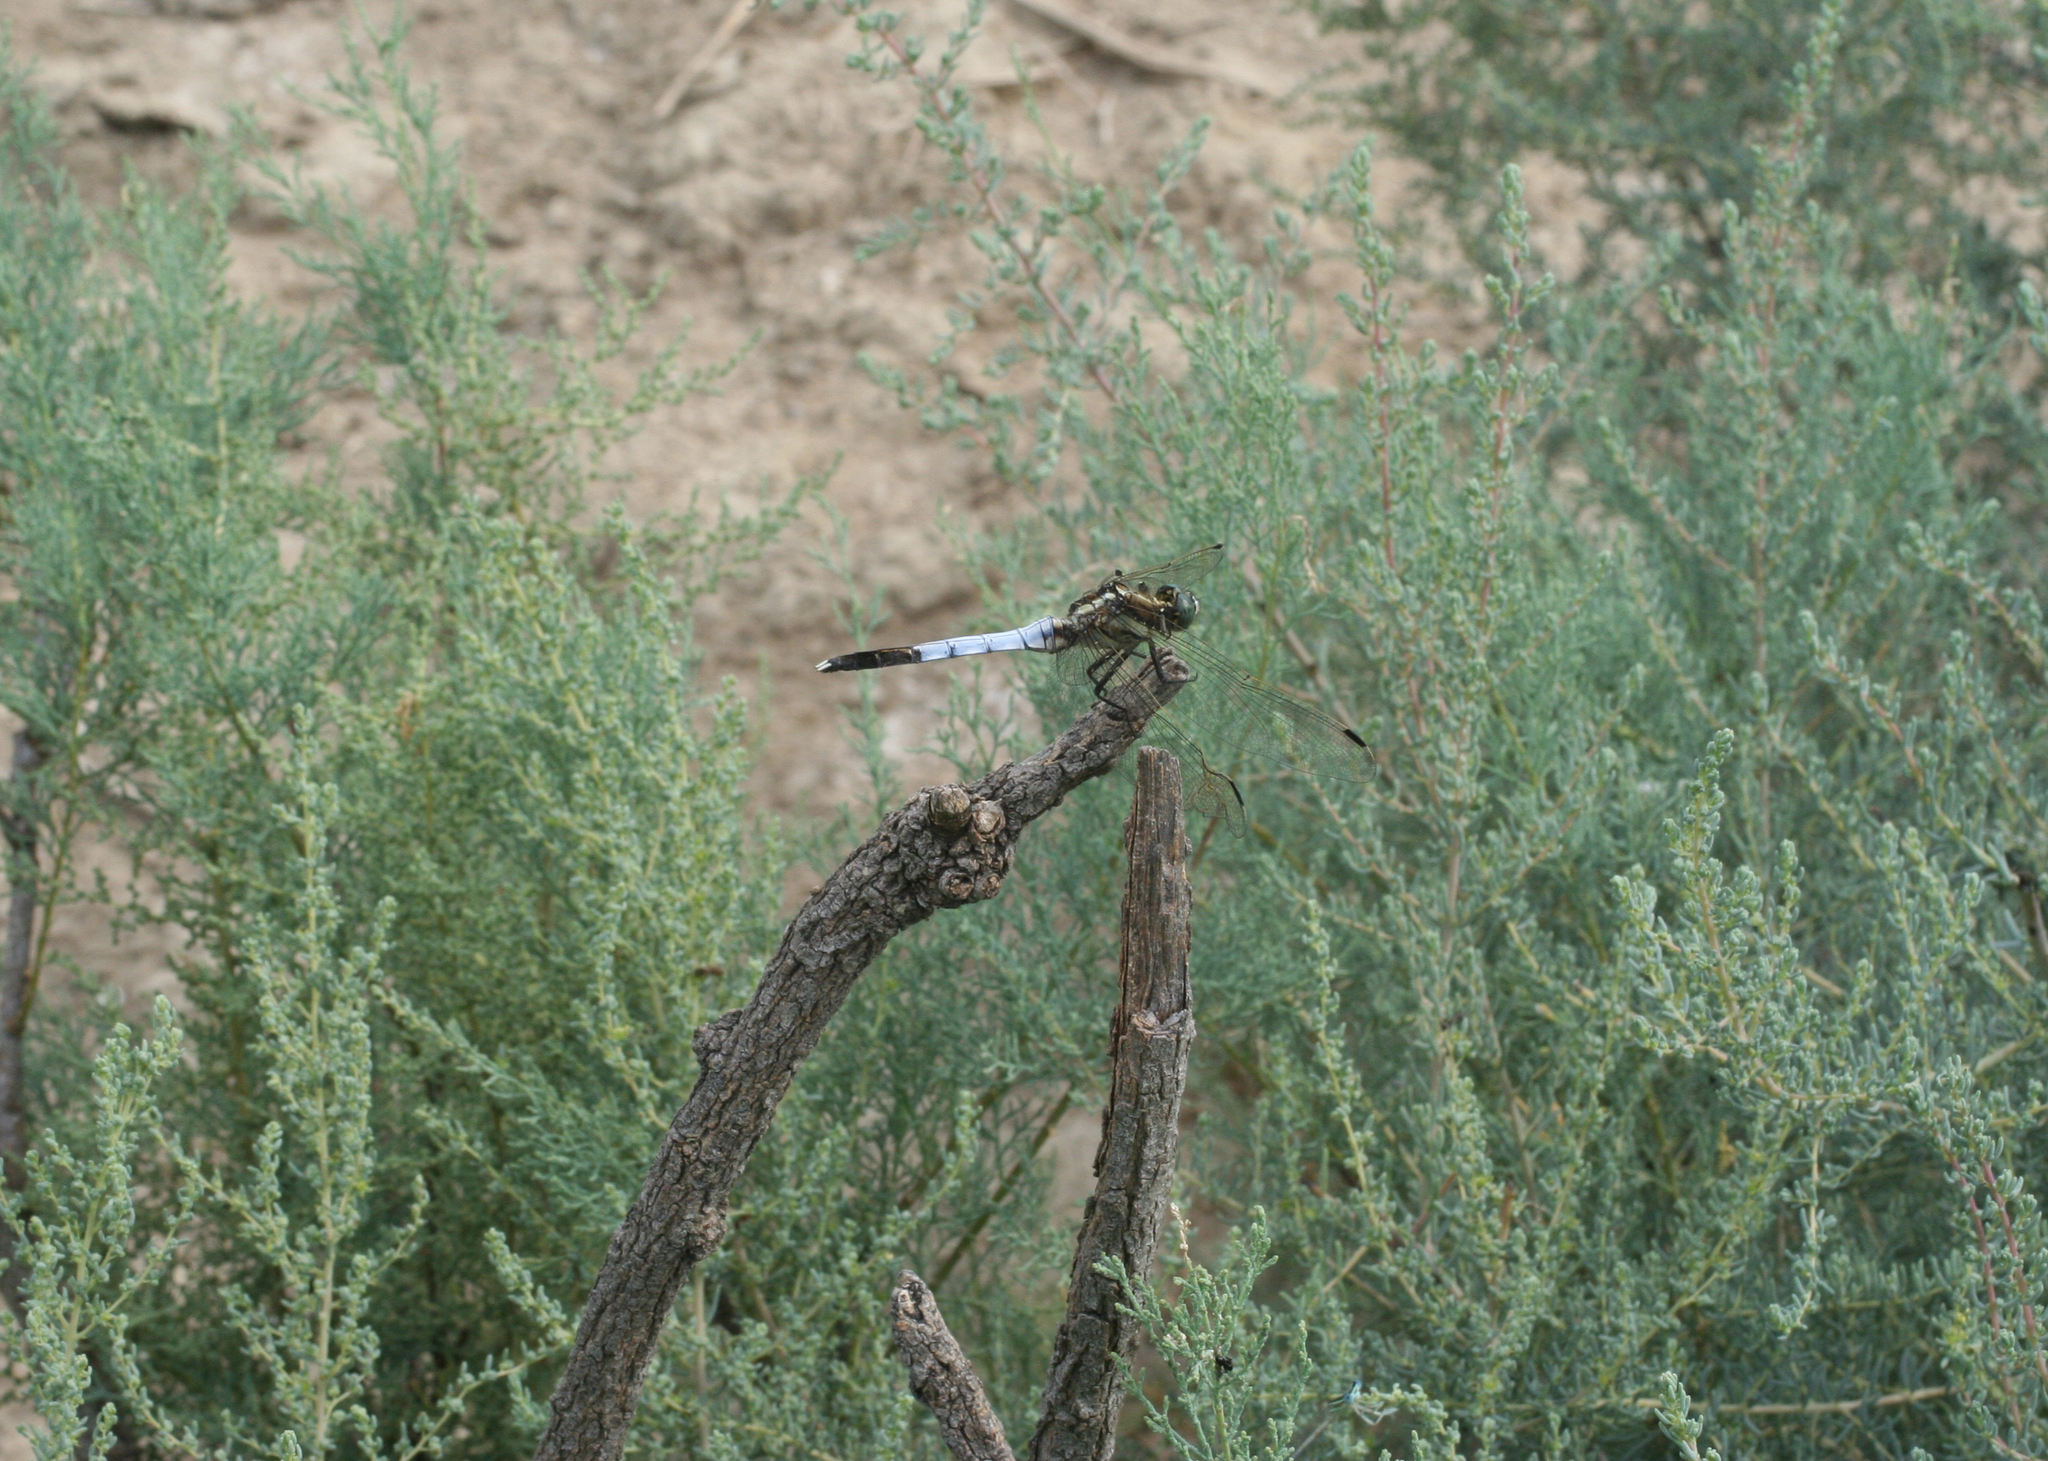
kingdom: Animalia
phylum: Arthropoda
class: Insecta
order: Odonata
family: Libellulidae
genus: Orthetrum
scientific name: Orthetrum albistylum
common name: White-tailed skimmer
